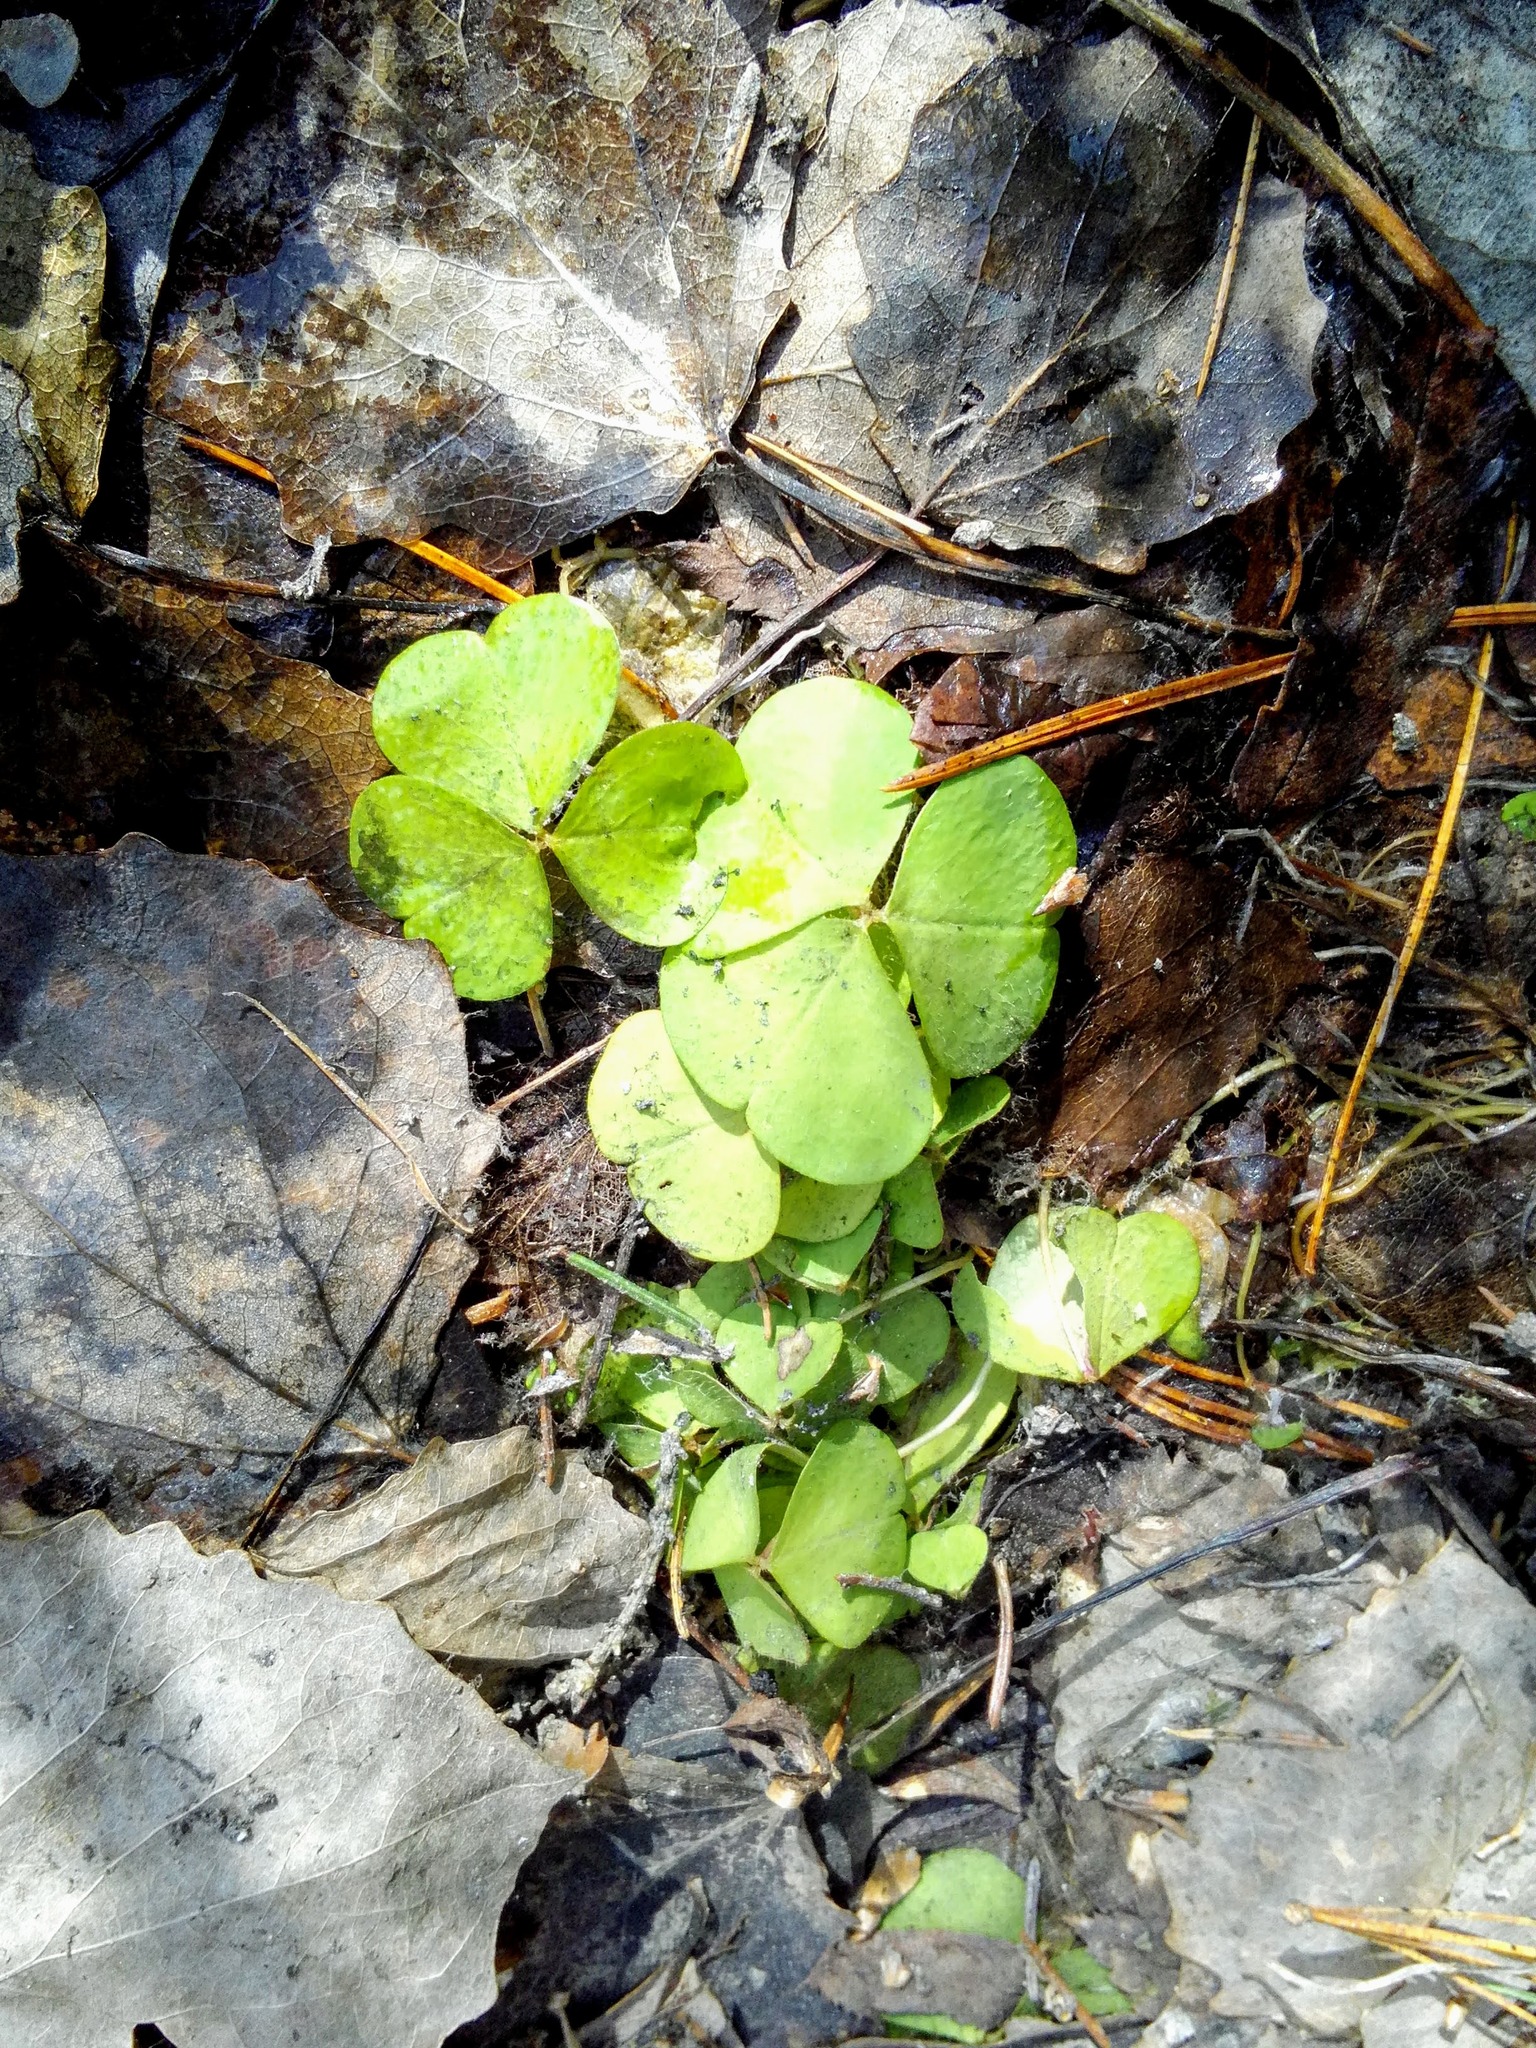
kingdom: Plantae
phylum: Tracheophyta
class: Magnoliopsida
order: Oxalidales
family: Oxalidaceae
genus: Oxalis
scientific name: Oxalis acetosella
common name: Wood-sorrel
